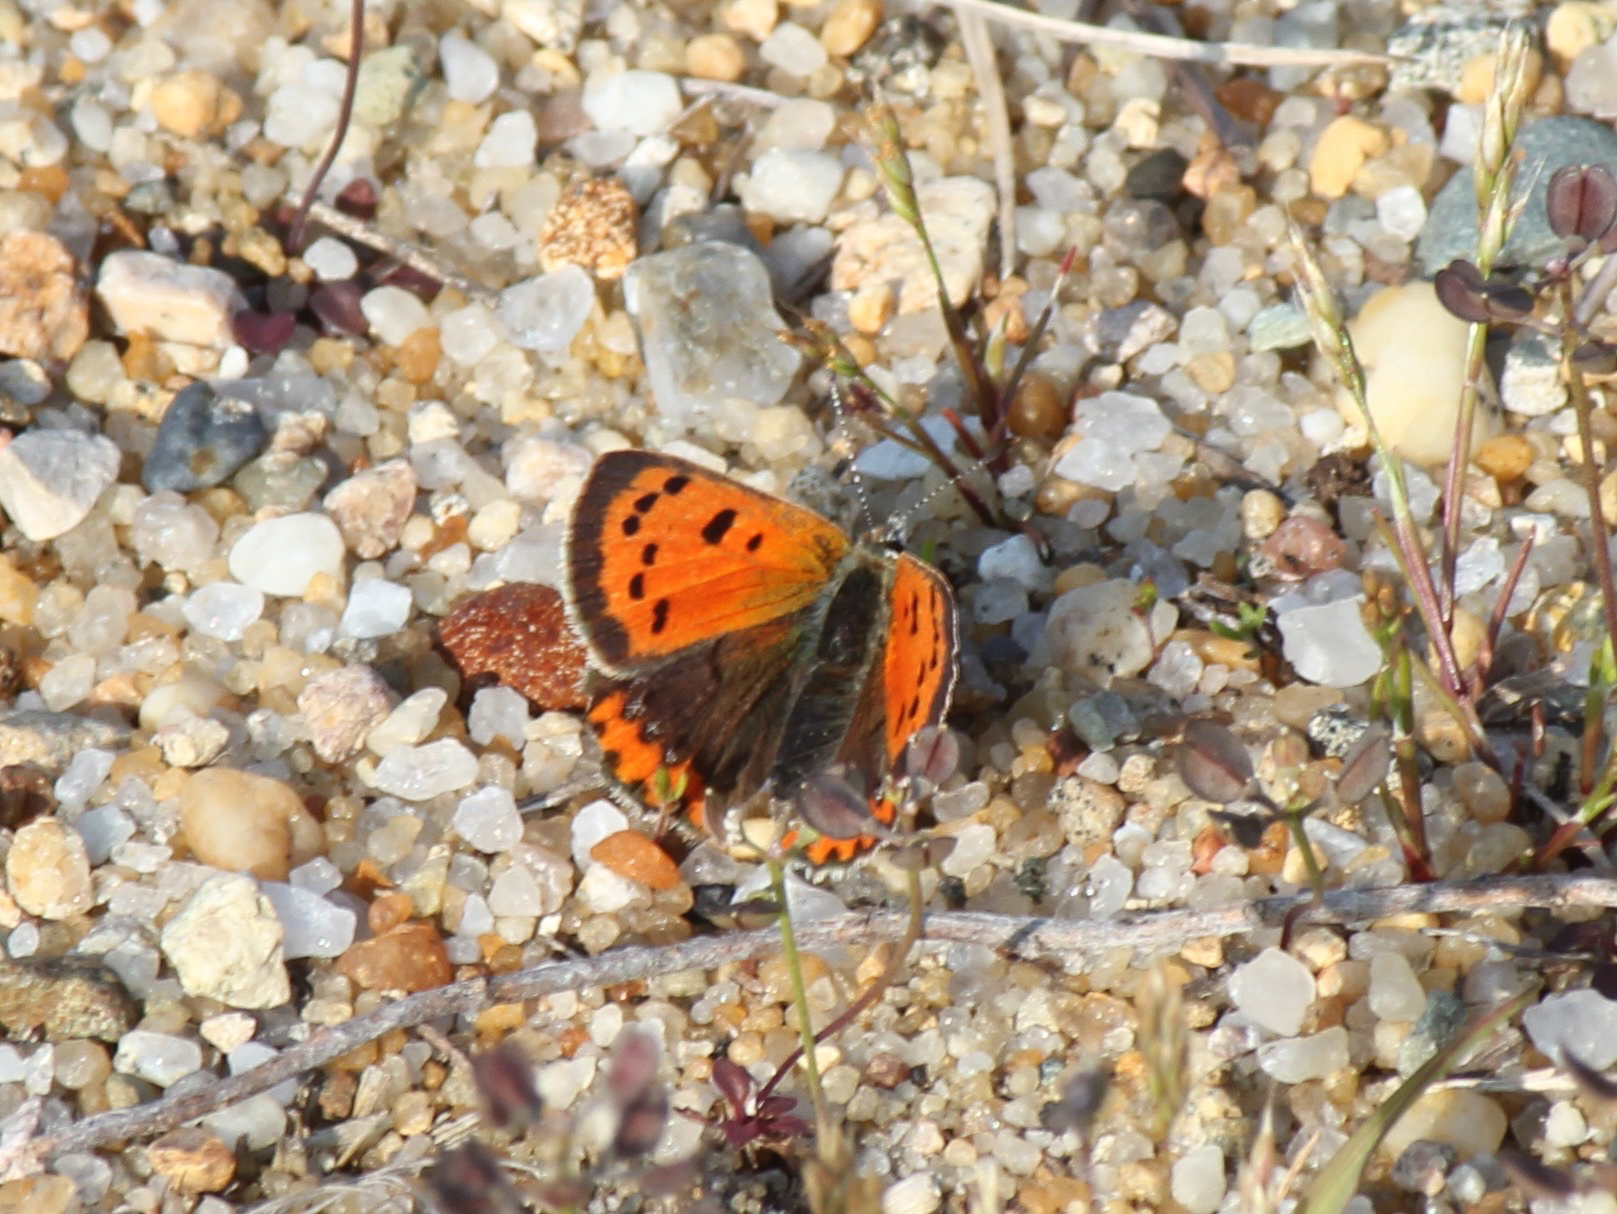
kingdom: Animalia
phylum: Arthropoda
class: Insecta
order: Lepidoptera
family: Lycaenidae
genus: Lycaena
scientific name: Lycaena hypophlaeas
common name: American copper
